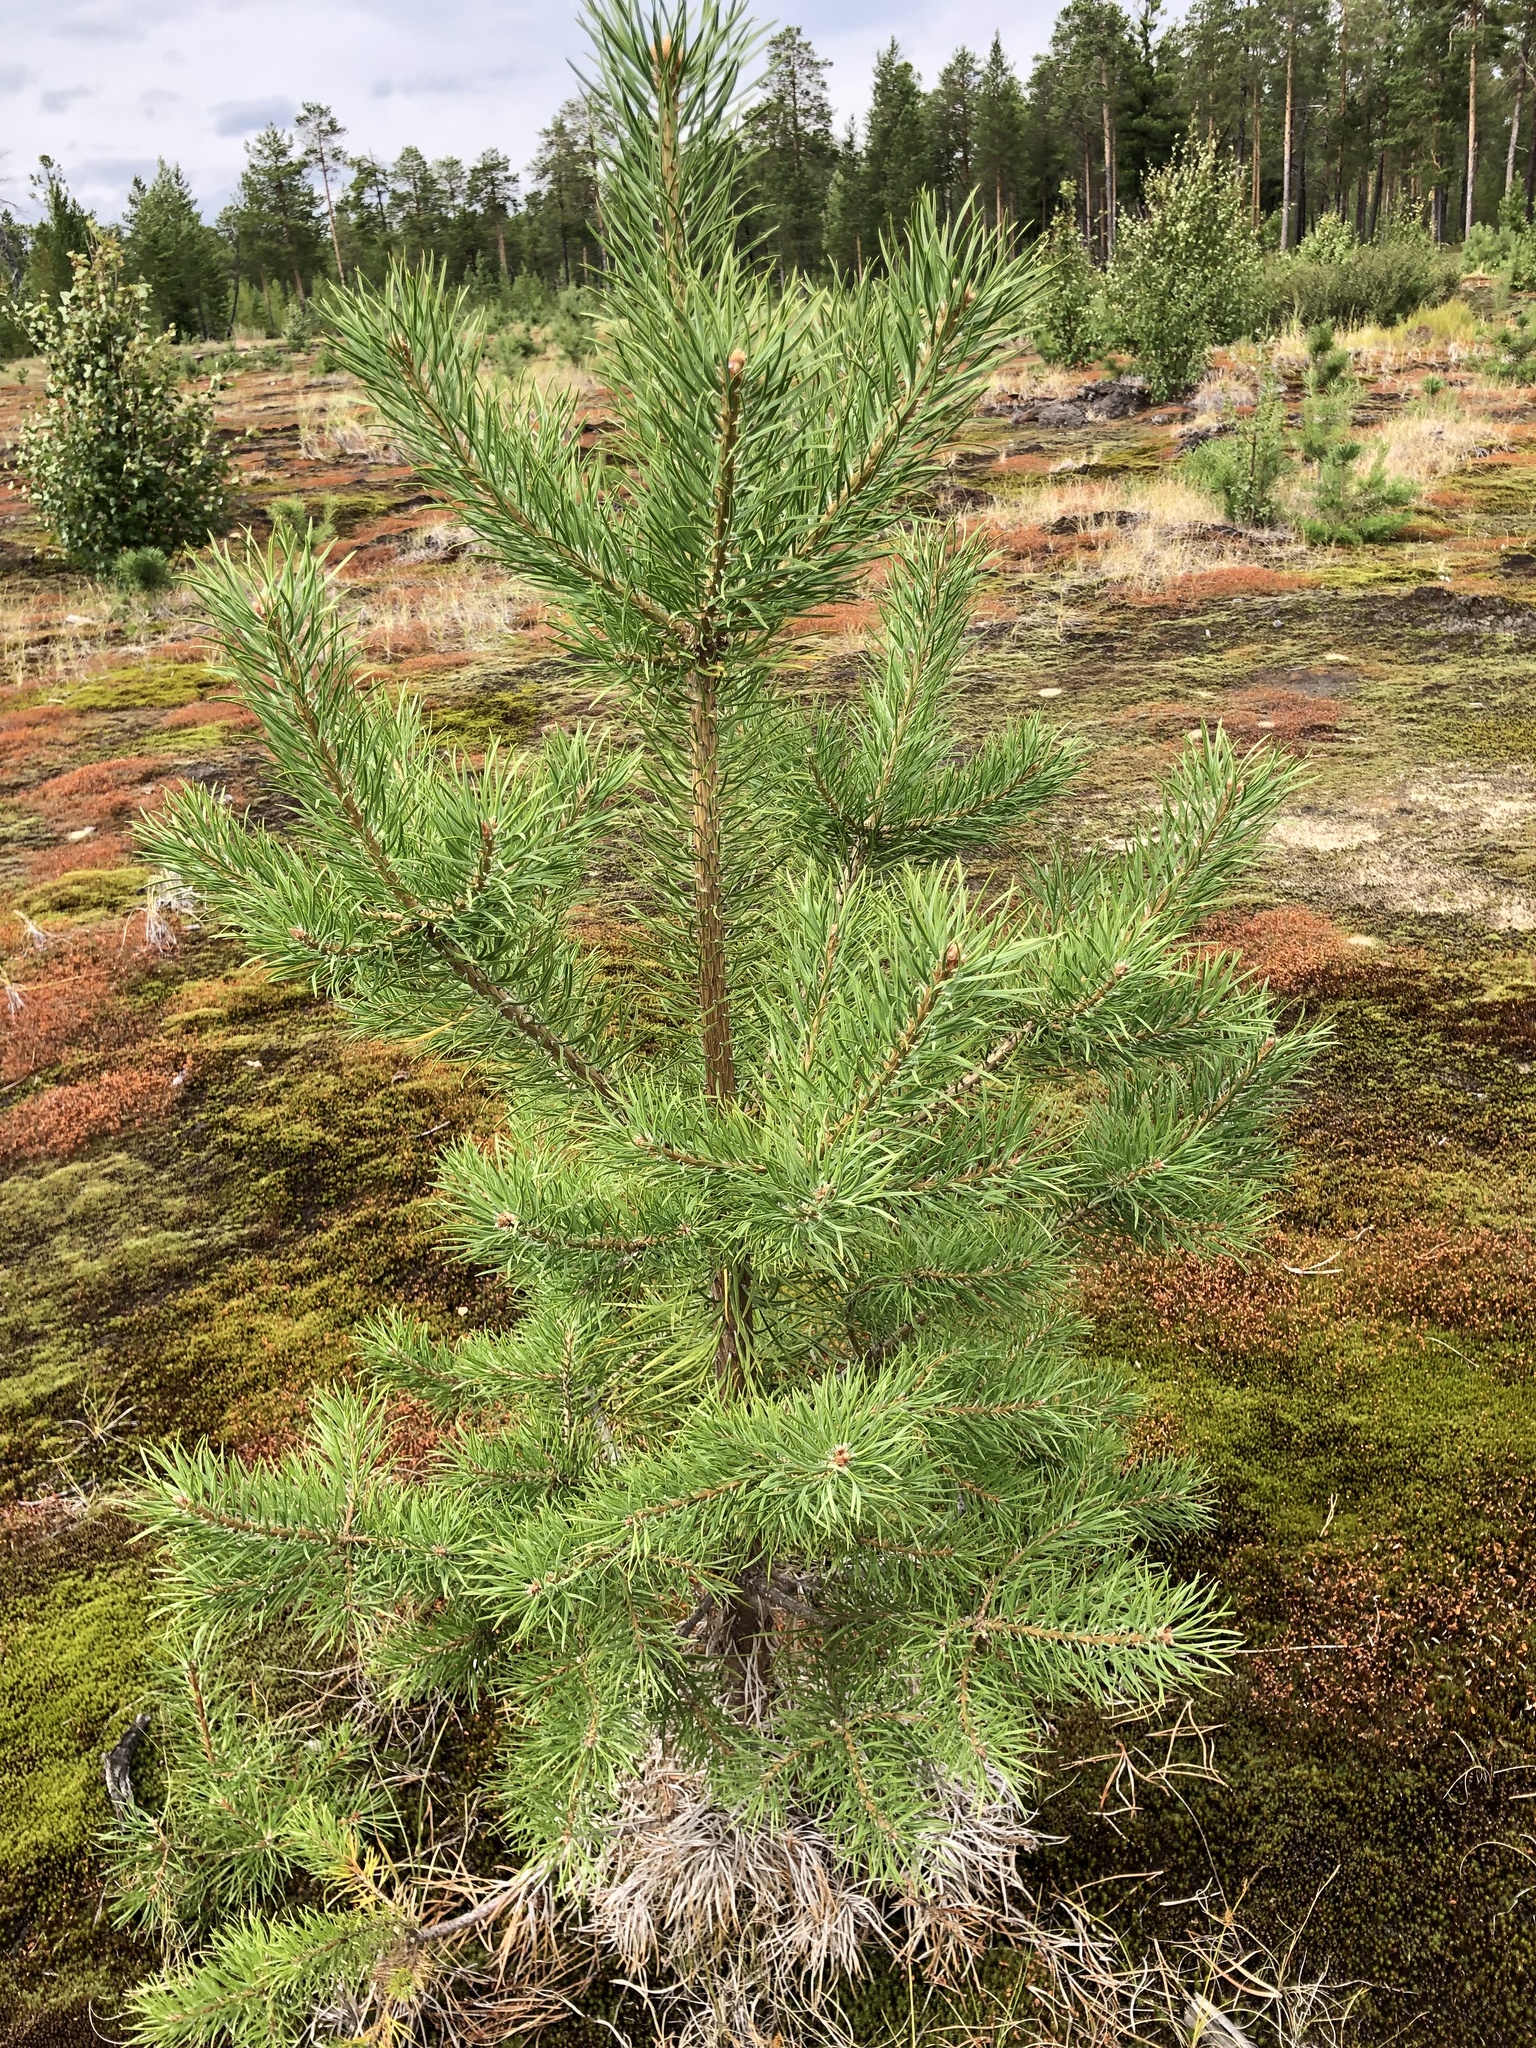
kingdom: Plantae
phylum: Tracheophyta
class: Pinopsida
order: Pinales
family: Pinaceae
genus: Pinus
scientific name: Pinus sylvestris
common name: Scots pine
